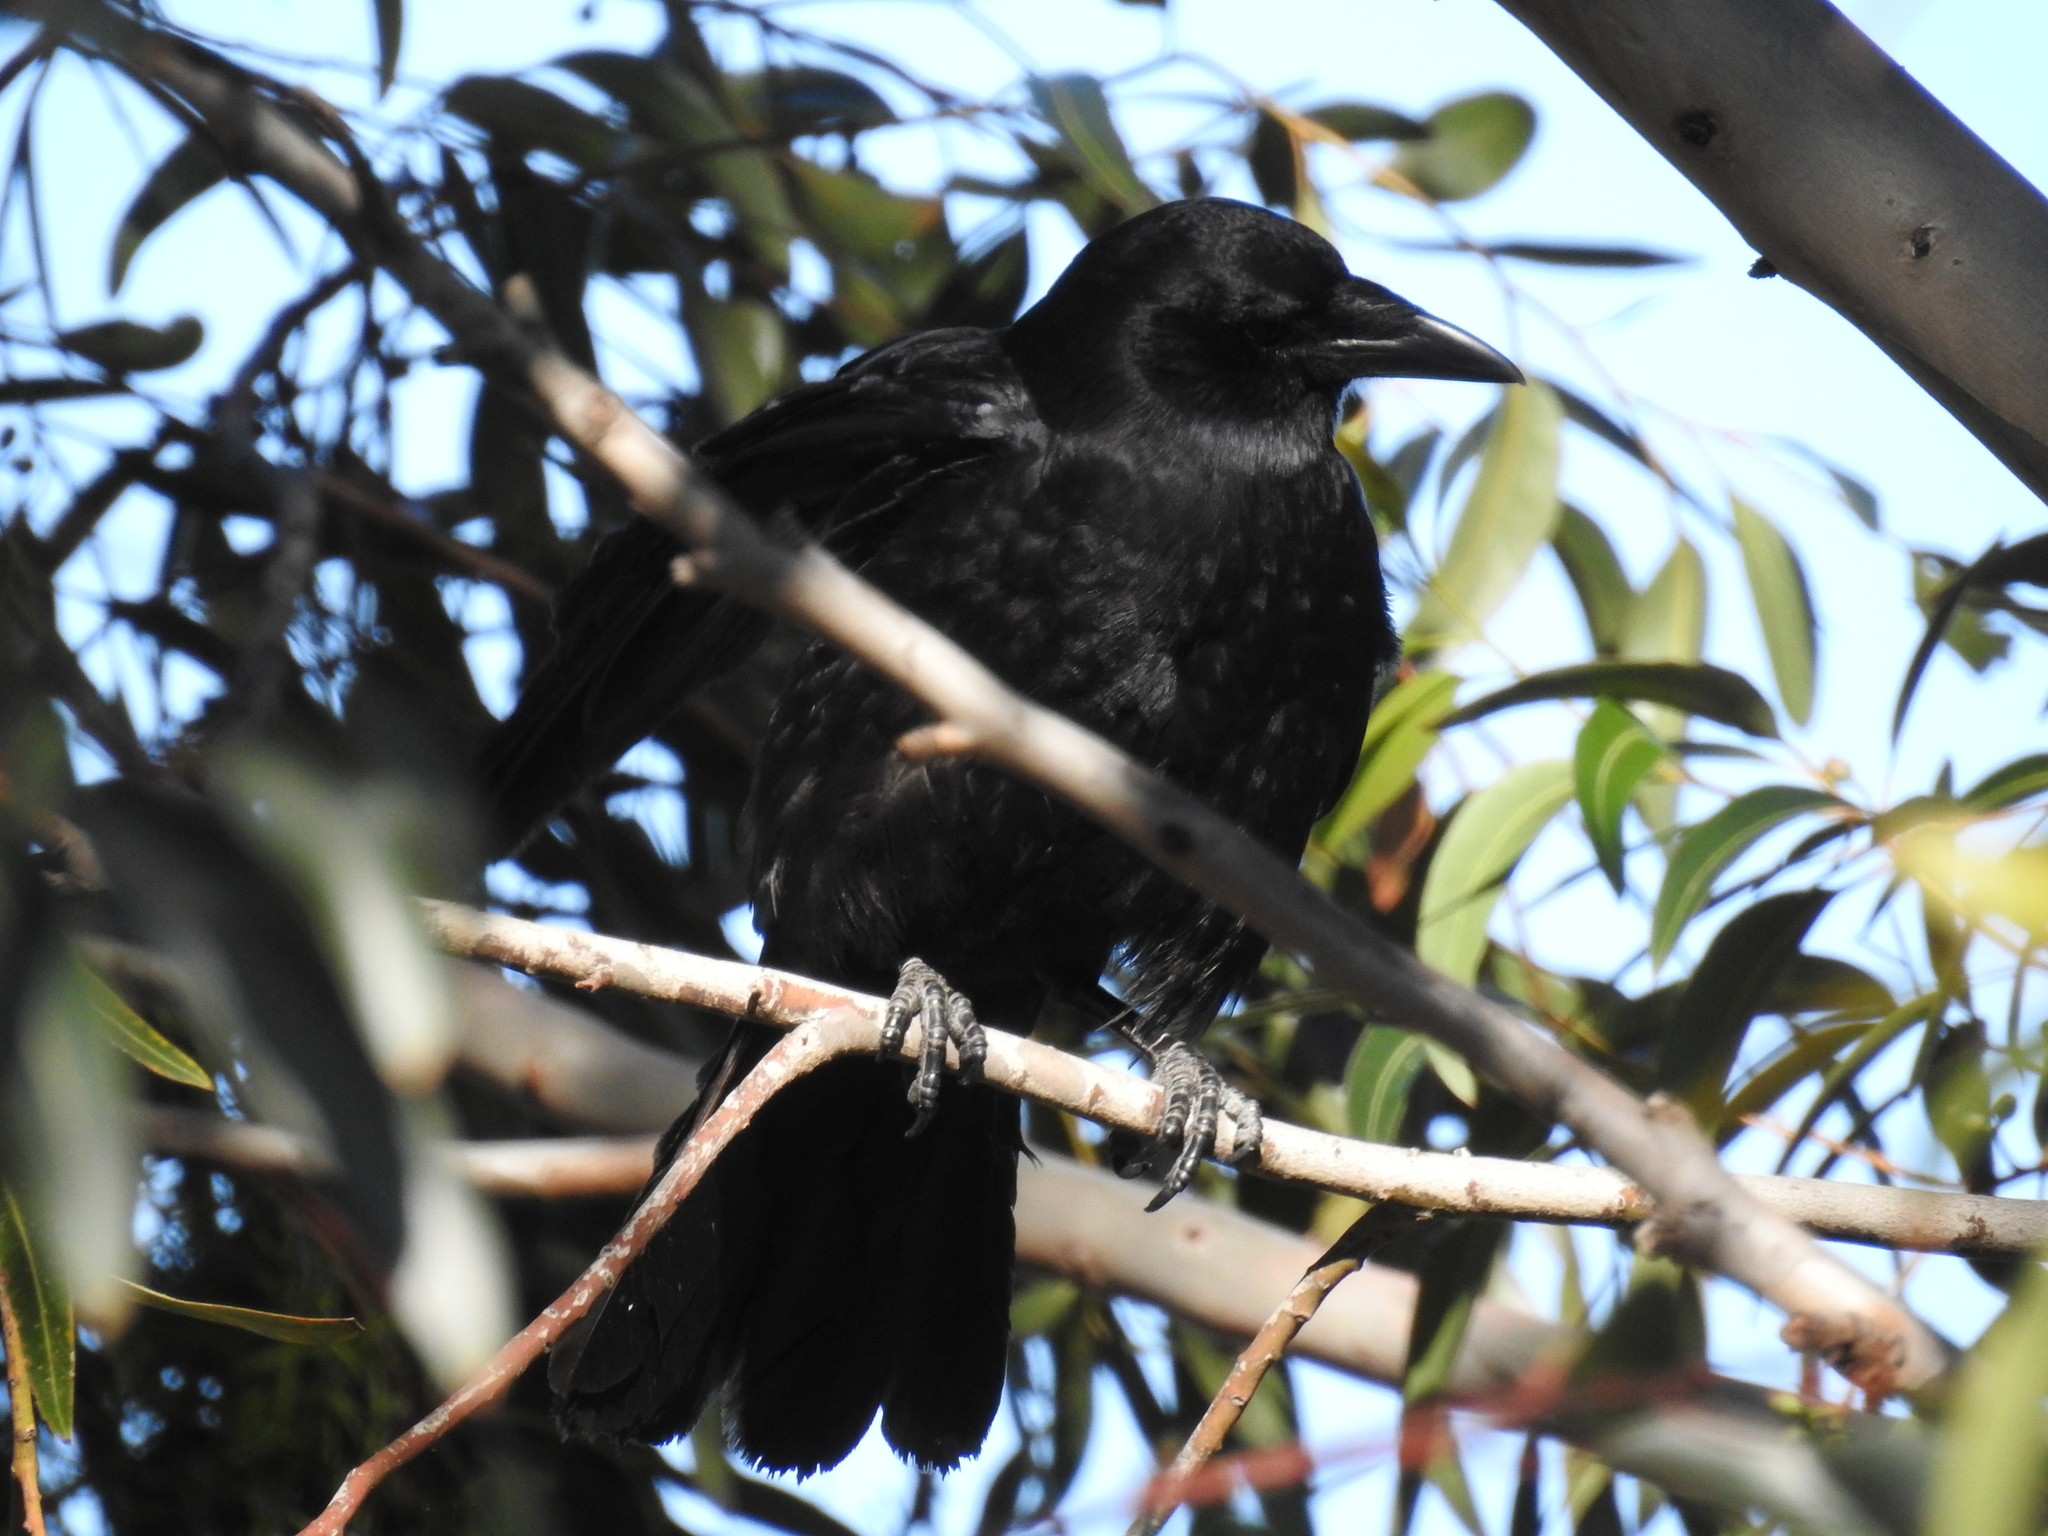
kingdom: Animalia
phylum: Chordata
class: Aves
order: Passeriformes
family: Corvidae
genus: Corvus
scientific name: Corvus brachyrhynchos
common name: American crow
